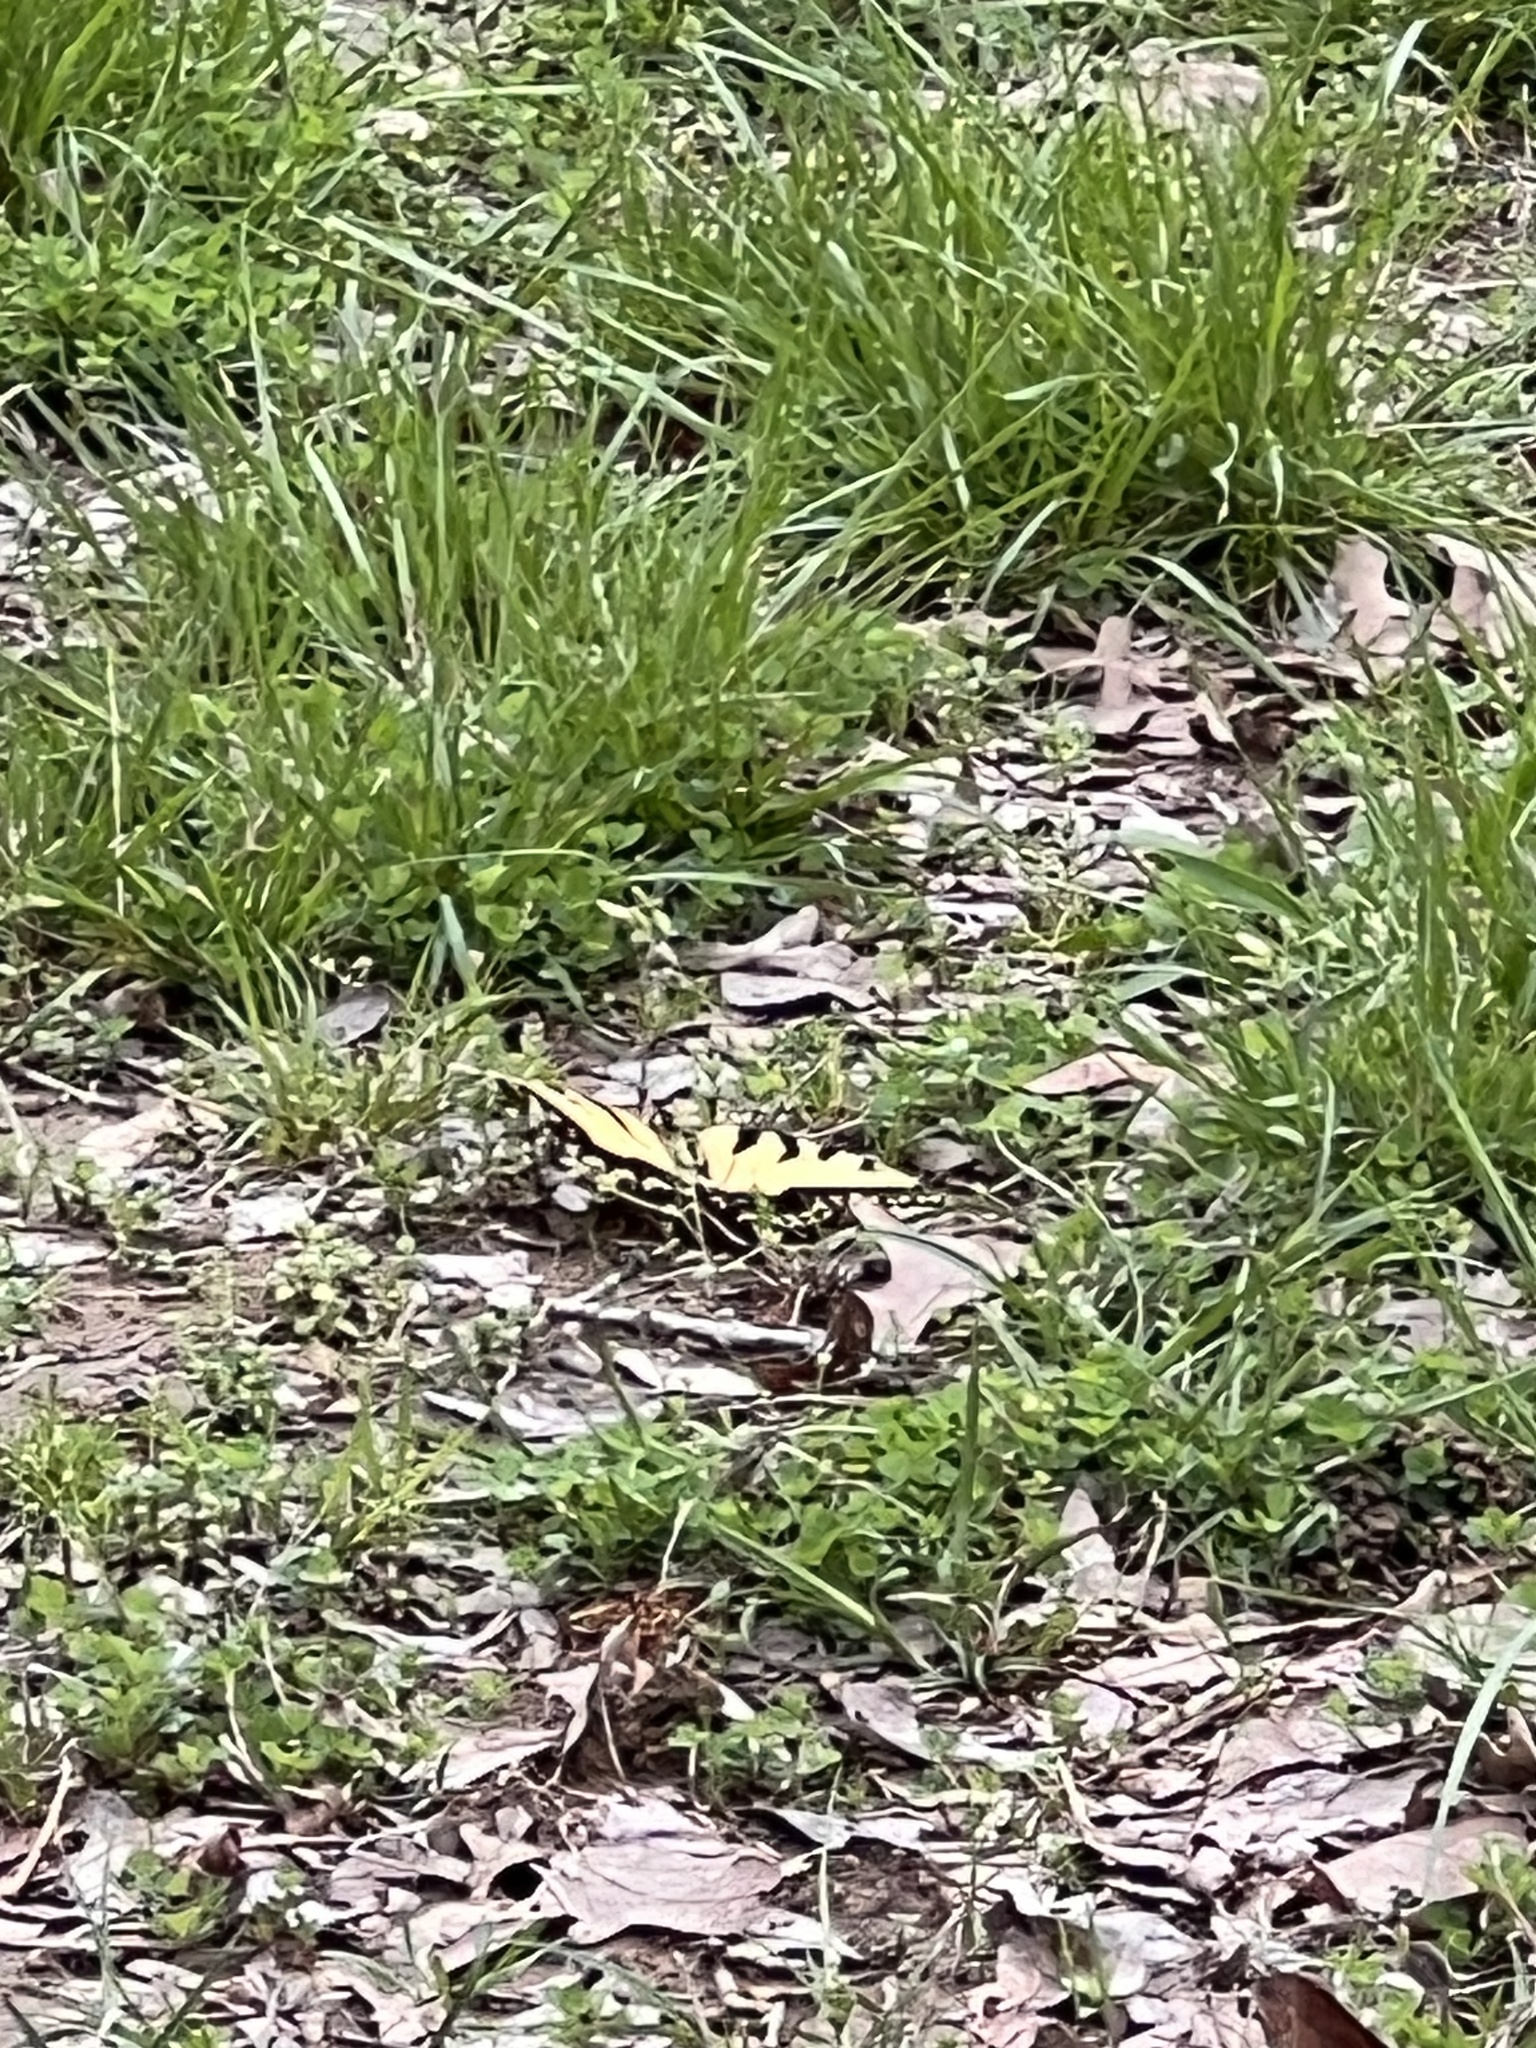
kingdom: Animalia
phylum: Arthropoda
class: Insecta
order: Lepidoptera
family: Papilionidae
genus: Papilio
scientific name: Papilio glaucus
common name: Tiger swallowtail
